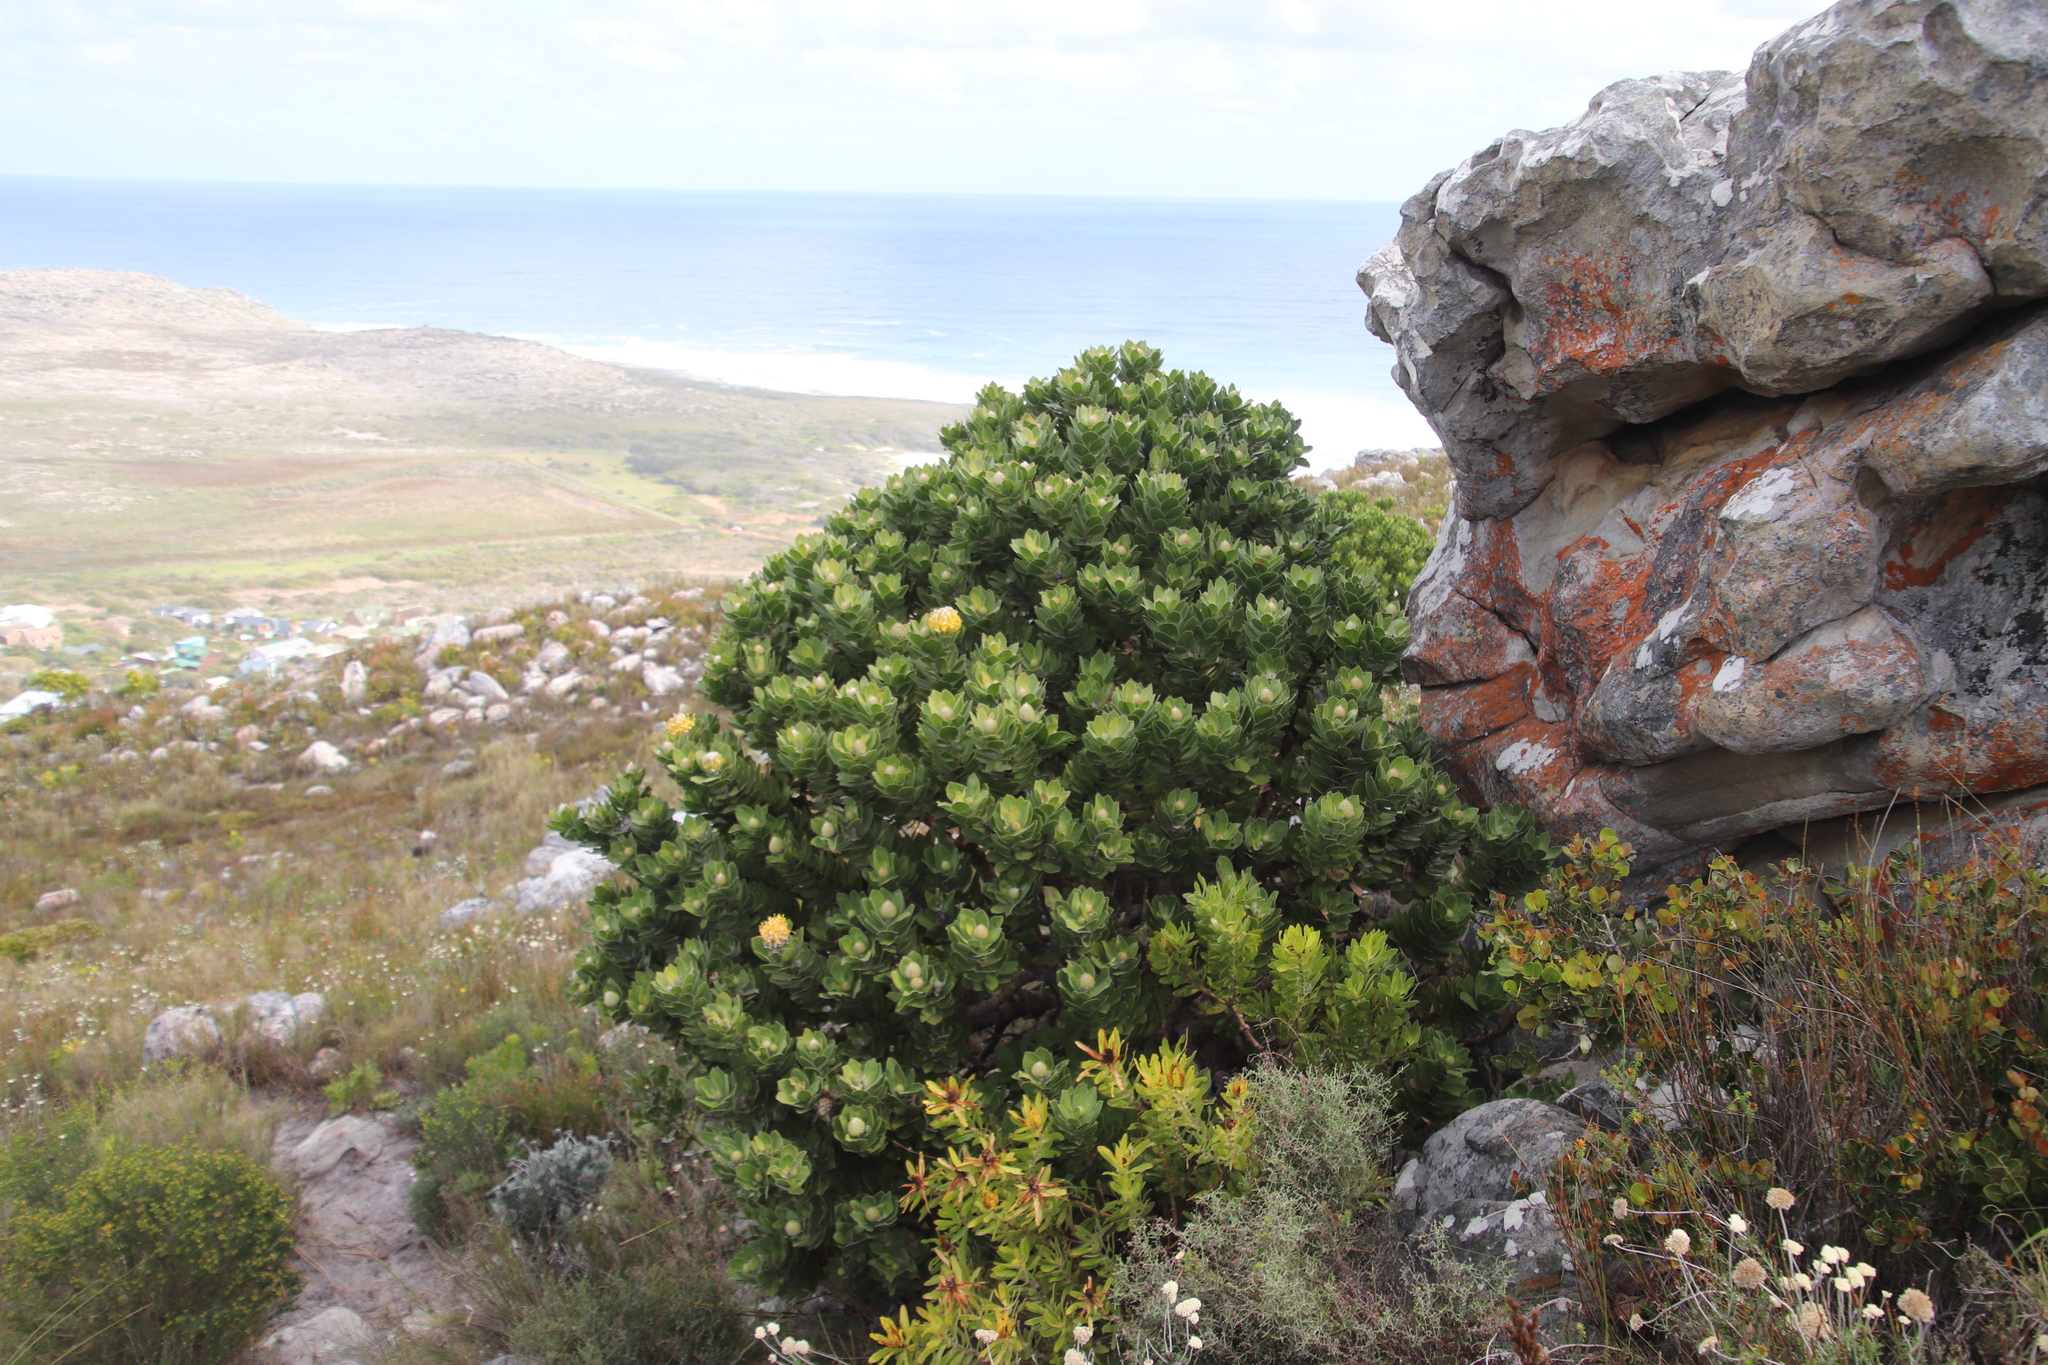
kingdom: Plantae
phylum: Tracheophyta
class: Magnoliopsida
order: Proteales
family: Proteaceae
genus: Leucospermum
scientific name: Leucospermum conocarpodendron
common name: Tree pincushion
